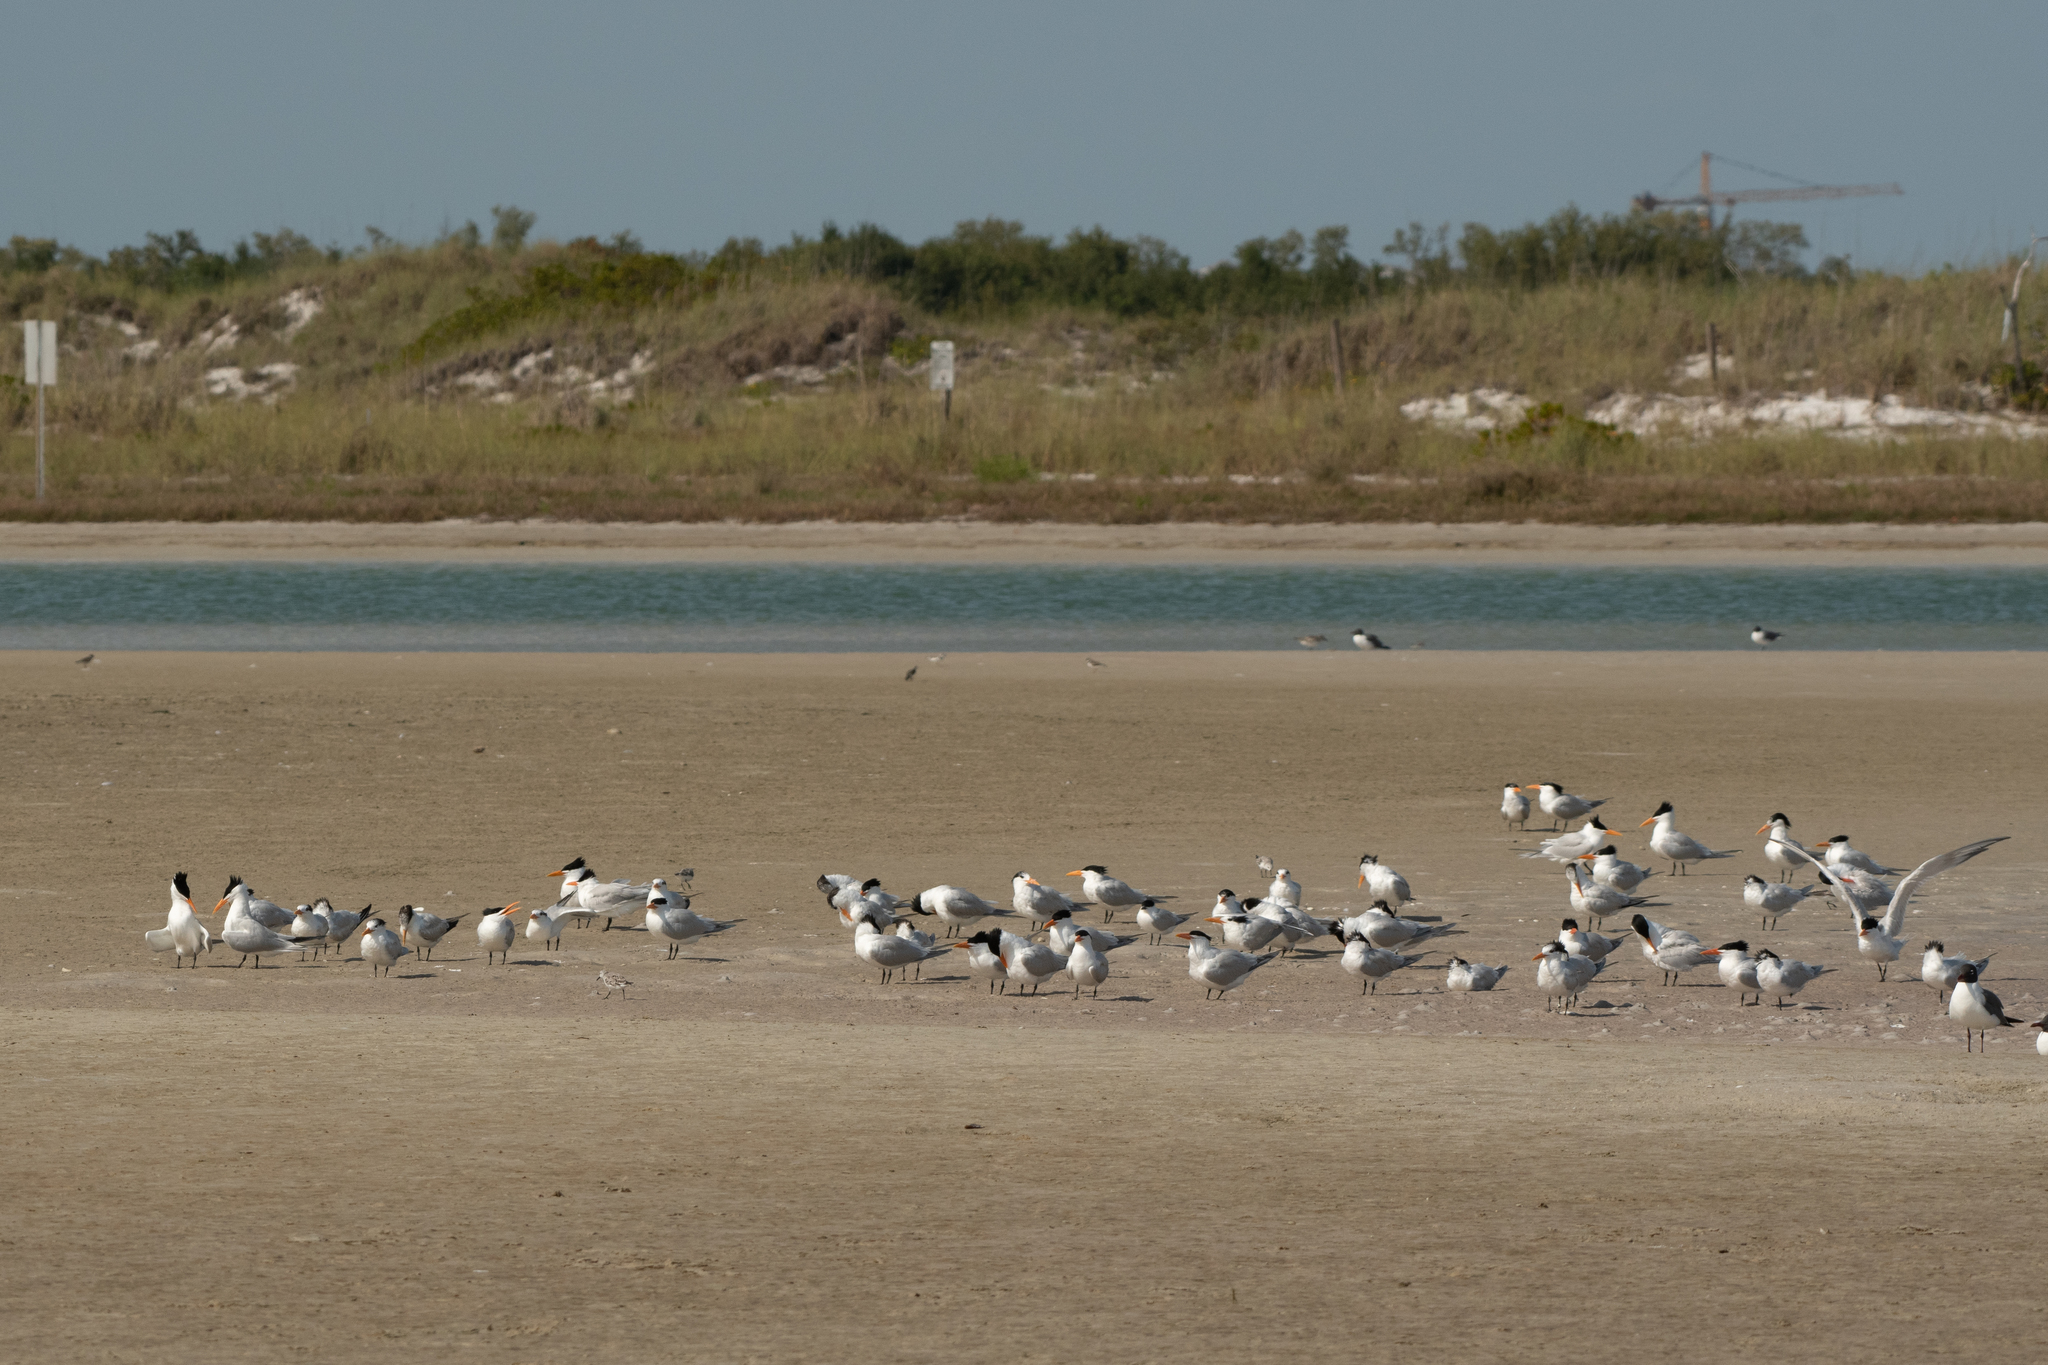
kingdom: Animalia
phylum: Chordata
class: Aves
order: Charadriiformes
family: Laridae
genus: Thalasseus
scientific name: Thalasseus maximus
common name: Royal tern
